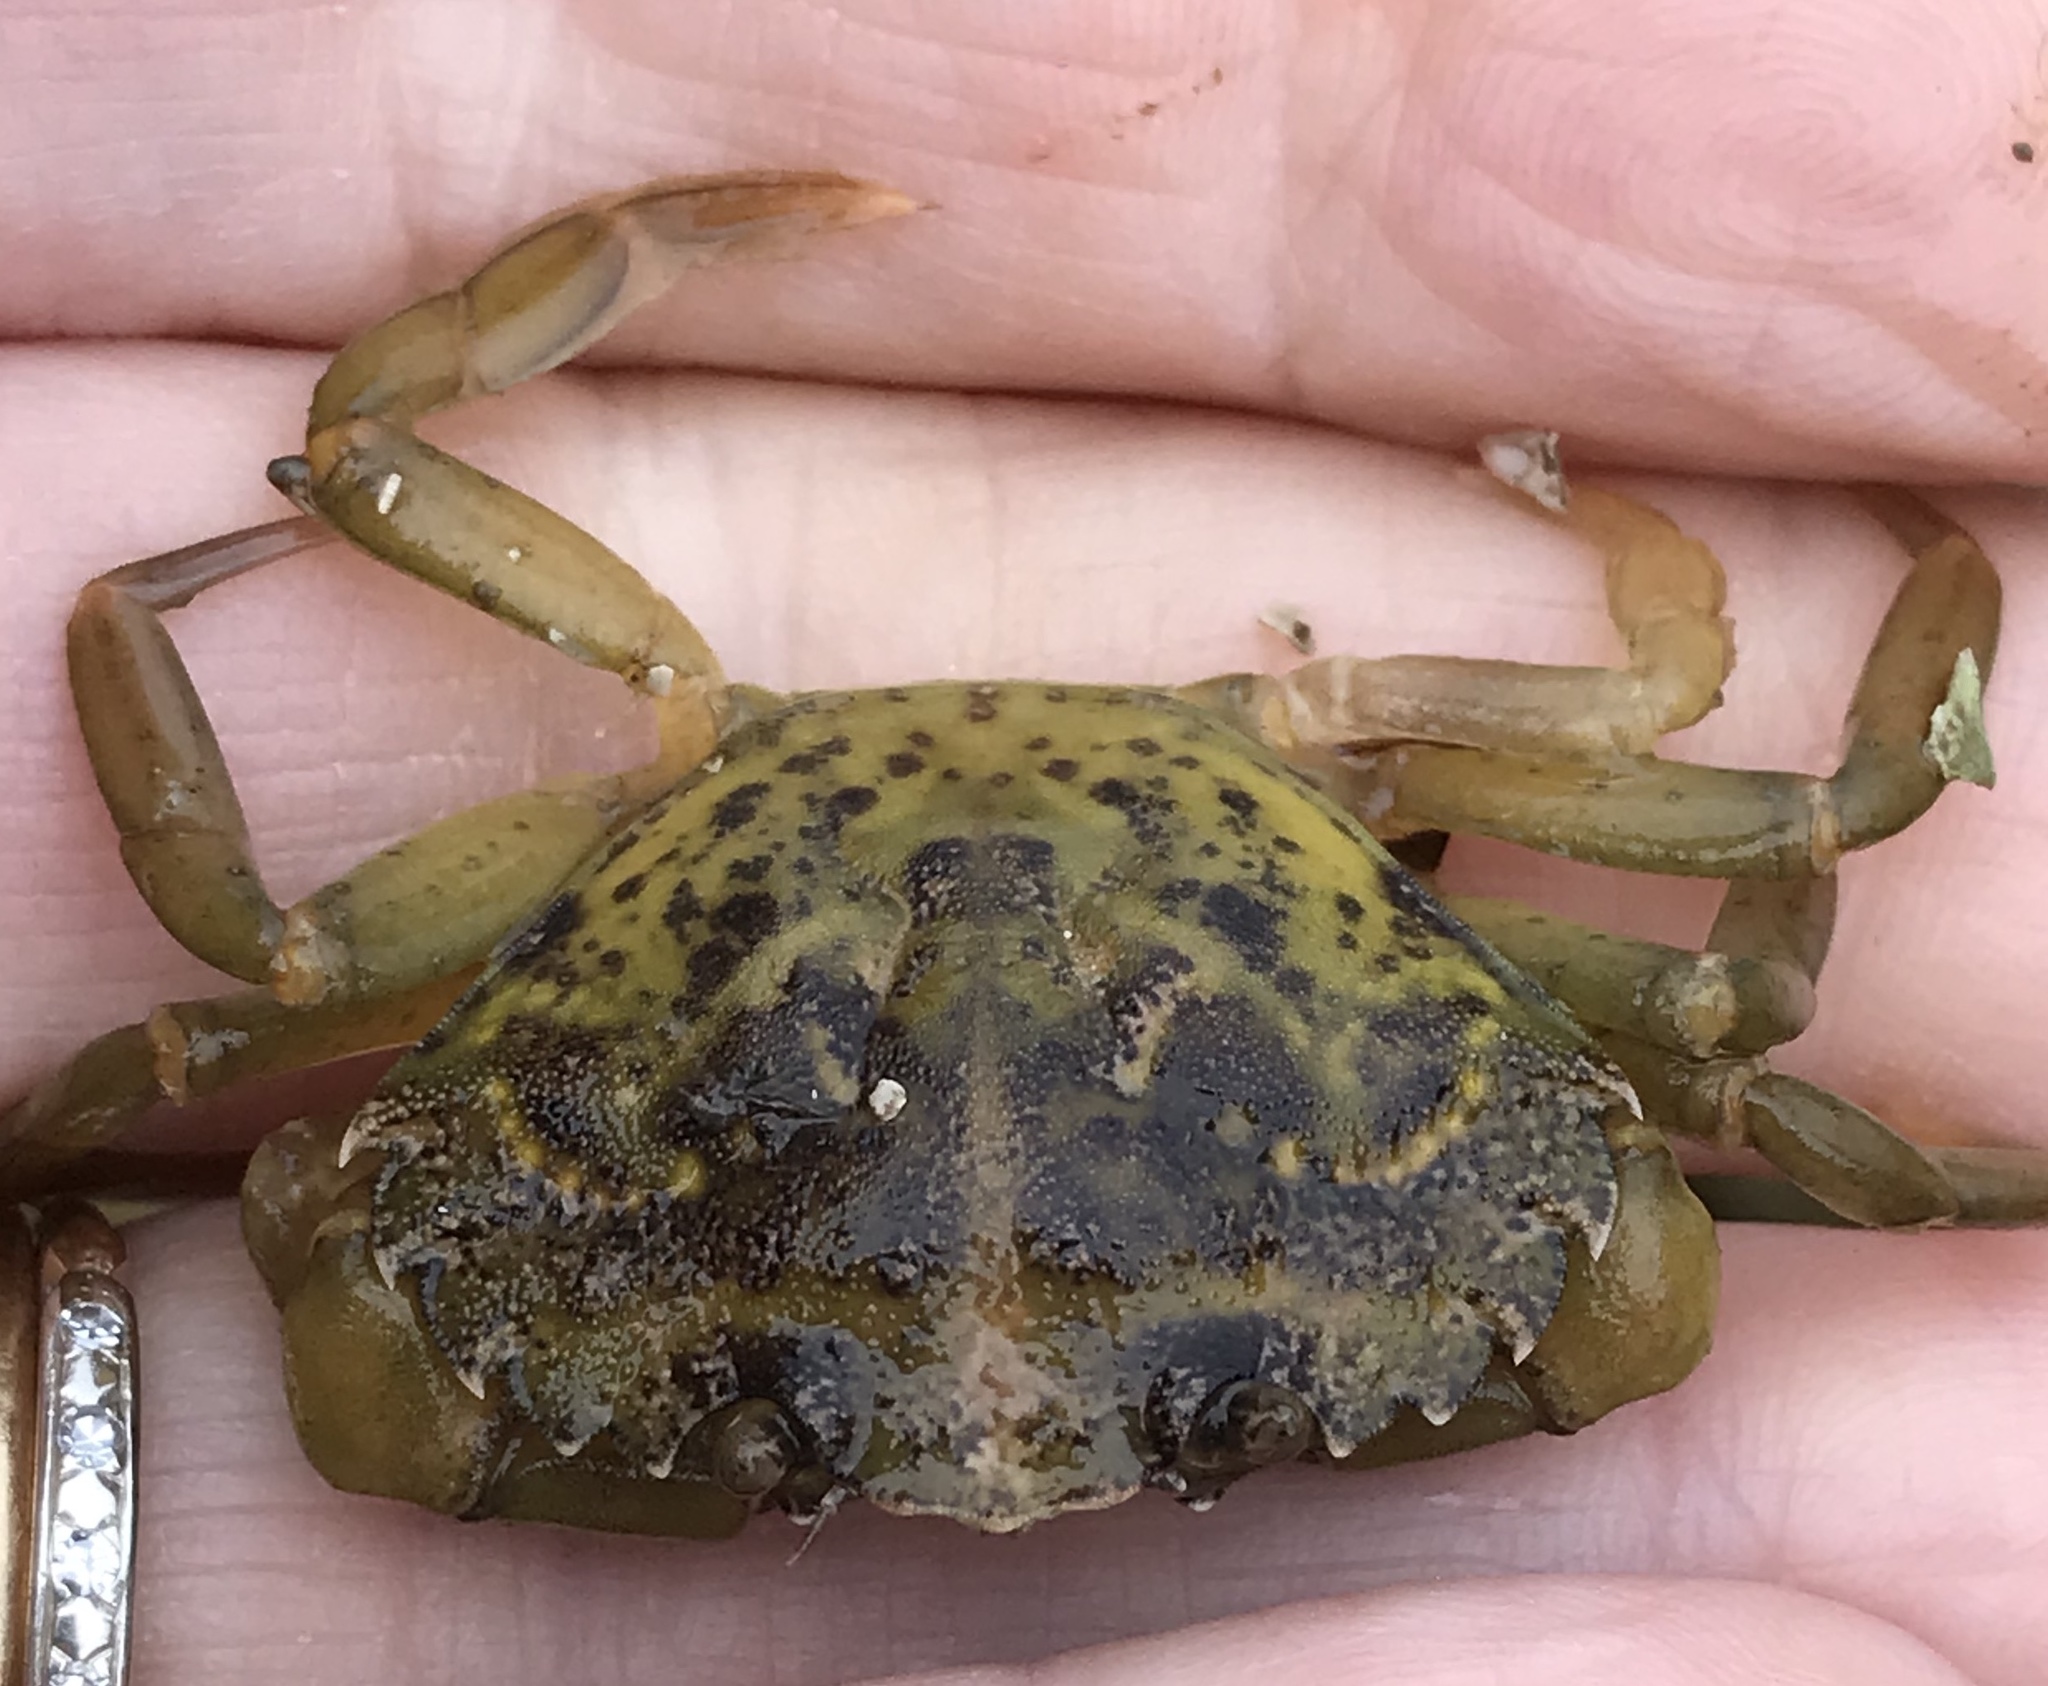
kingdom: Animalia
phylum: Arthropoda
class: Malacostraca
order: Decapoda
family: Carcinidae
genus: Carcinus
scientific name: Carcinus maenas
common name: European green crab
